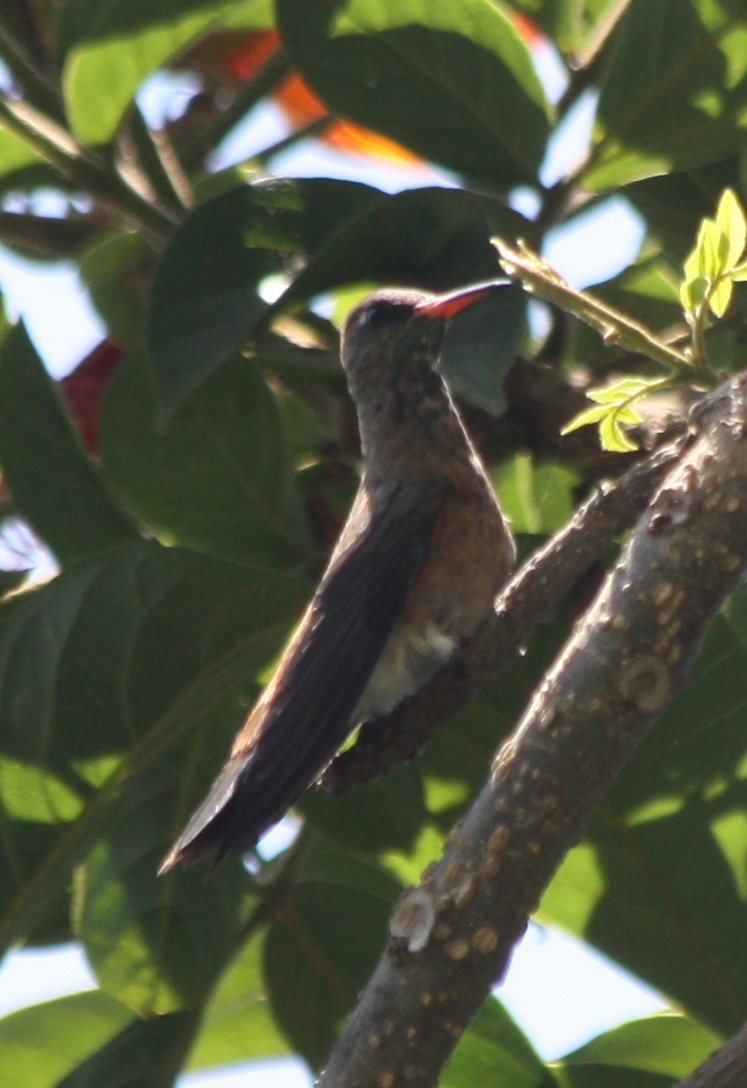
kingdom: Animalia
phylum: Chordata
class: Aves
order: Apodiformes
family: Trochilidae
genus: Amazilis
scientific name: Amazilis amazilia
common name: Amazilia hummingbird
